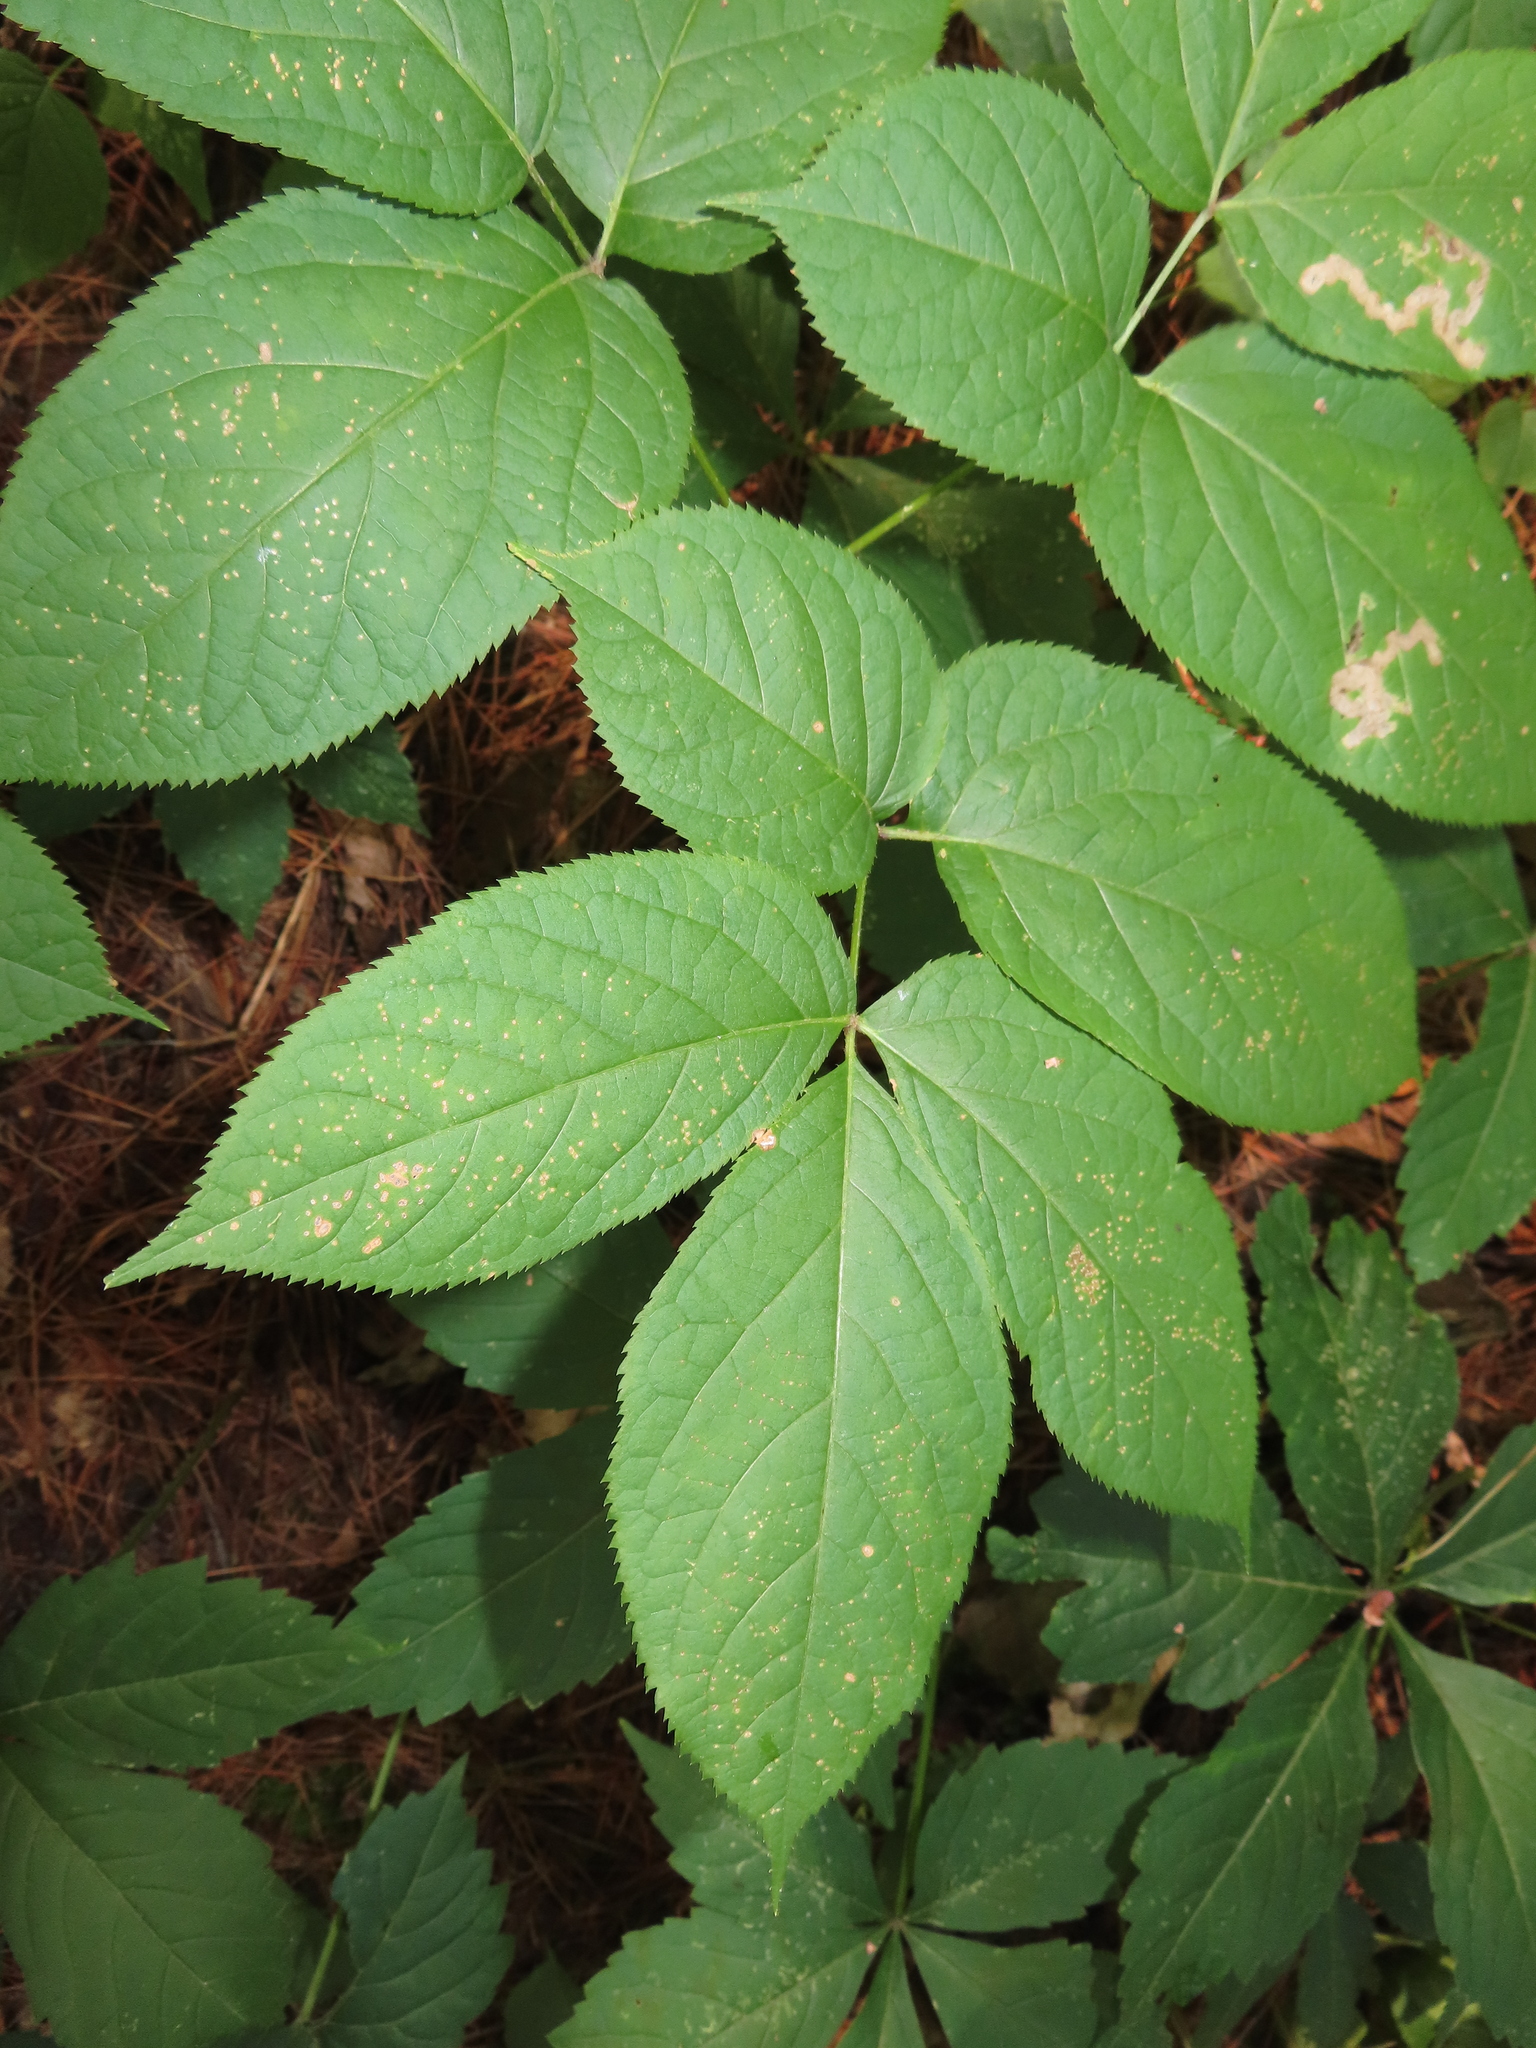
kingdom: Plantae
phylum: Tracheophyta
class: Magnoliopsida
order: Apiales
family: Araliaceae
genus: Aralia
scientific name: Aralia nudicaulis
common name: Wild sarsaparilla
